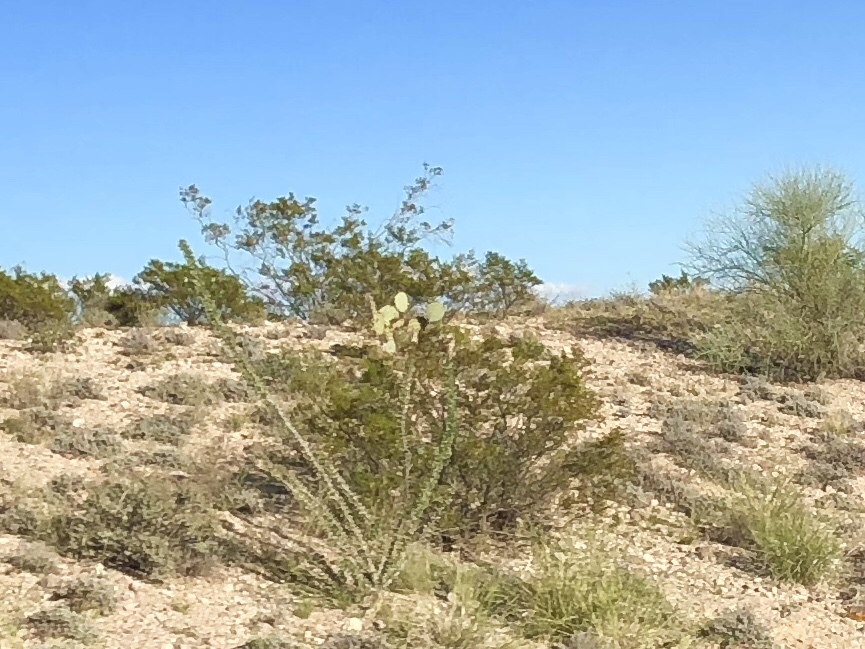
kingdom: Plantae
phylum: Tracheophyta
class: Magnoliopsida
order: Zygophyllales
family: Zygophyllaceae
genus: Larrea
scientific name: Larrea tridentata
